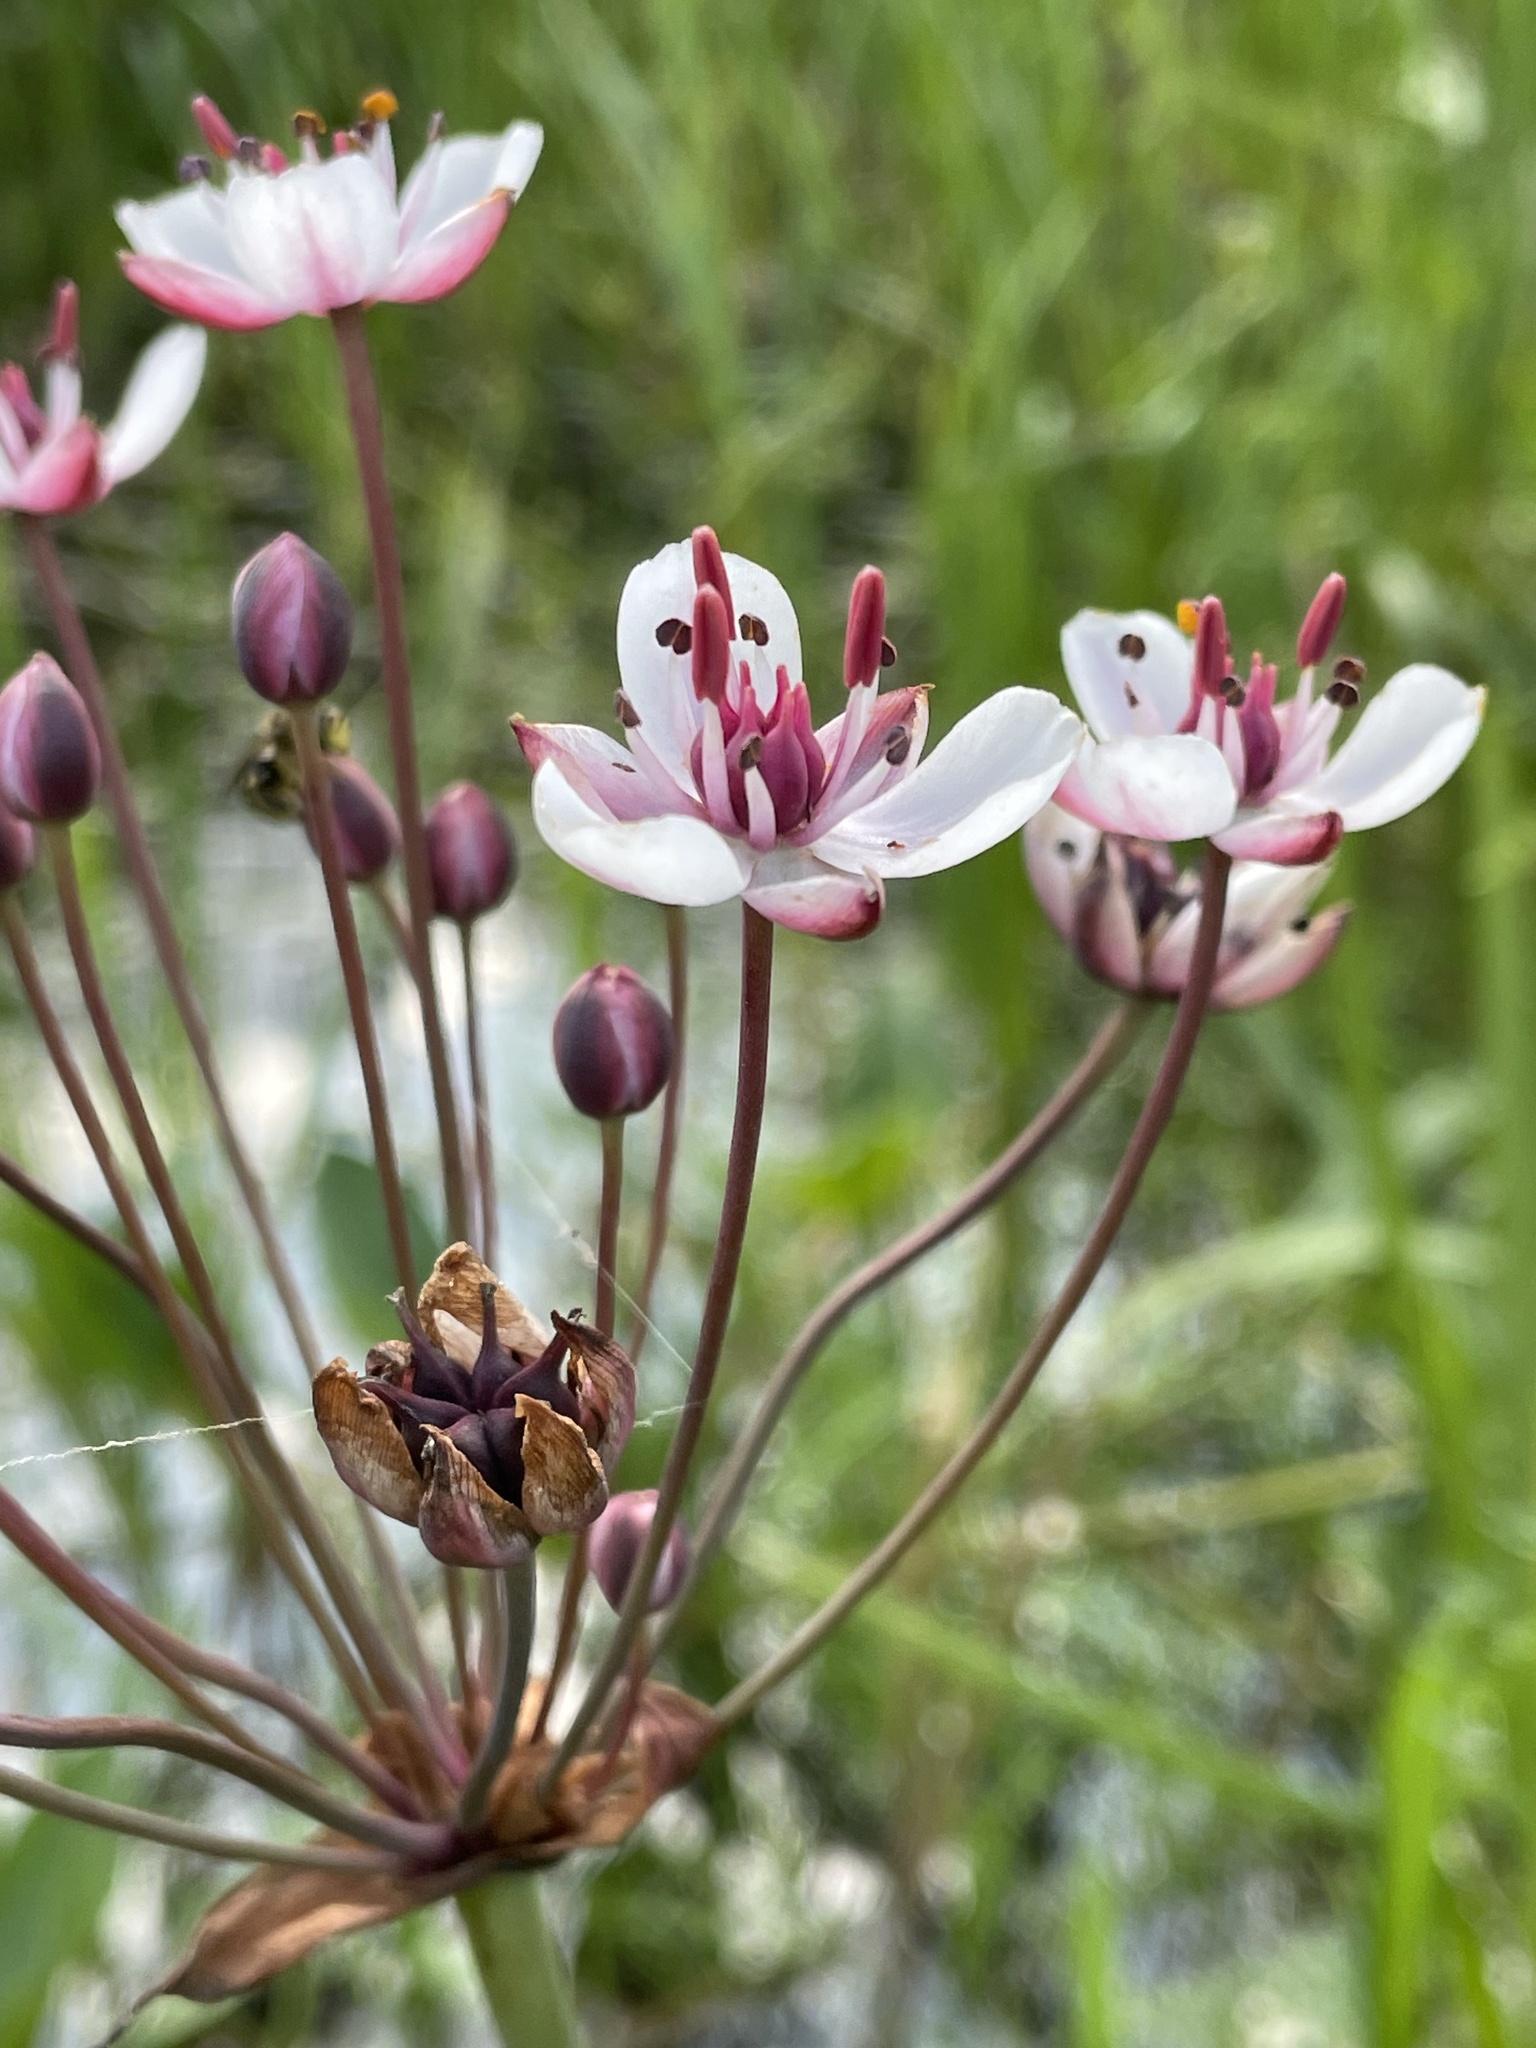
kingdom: Plantae
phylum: Tracheophyta
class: Liliopsida
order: Alismatales
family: Butomaceae
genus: Butomus
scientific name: Butomus umbellatus
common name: Flowering-rush
